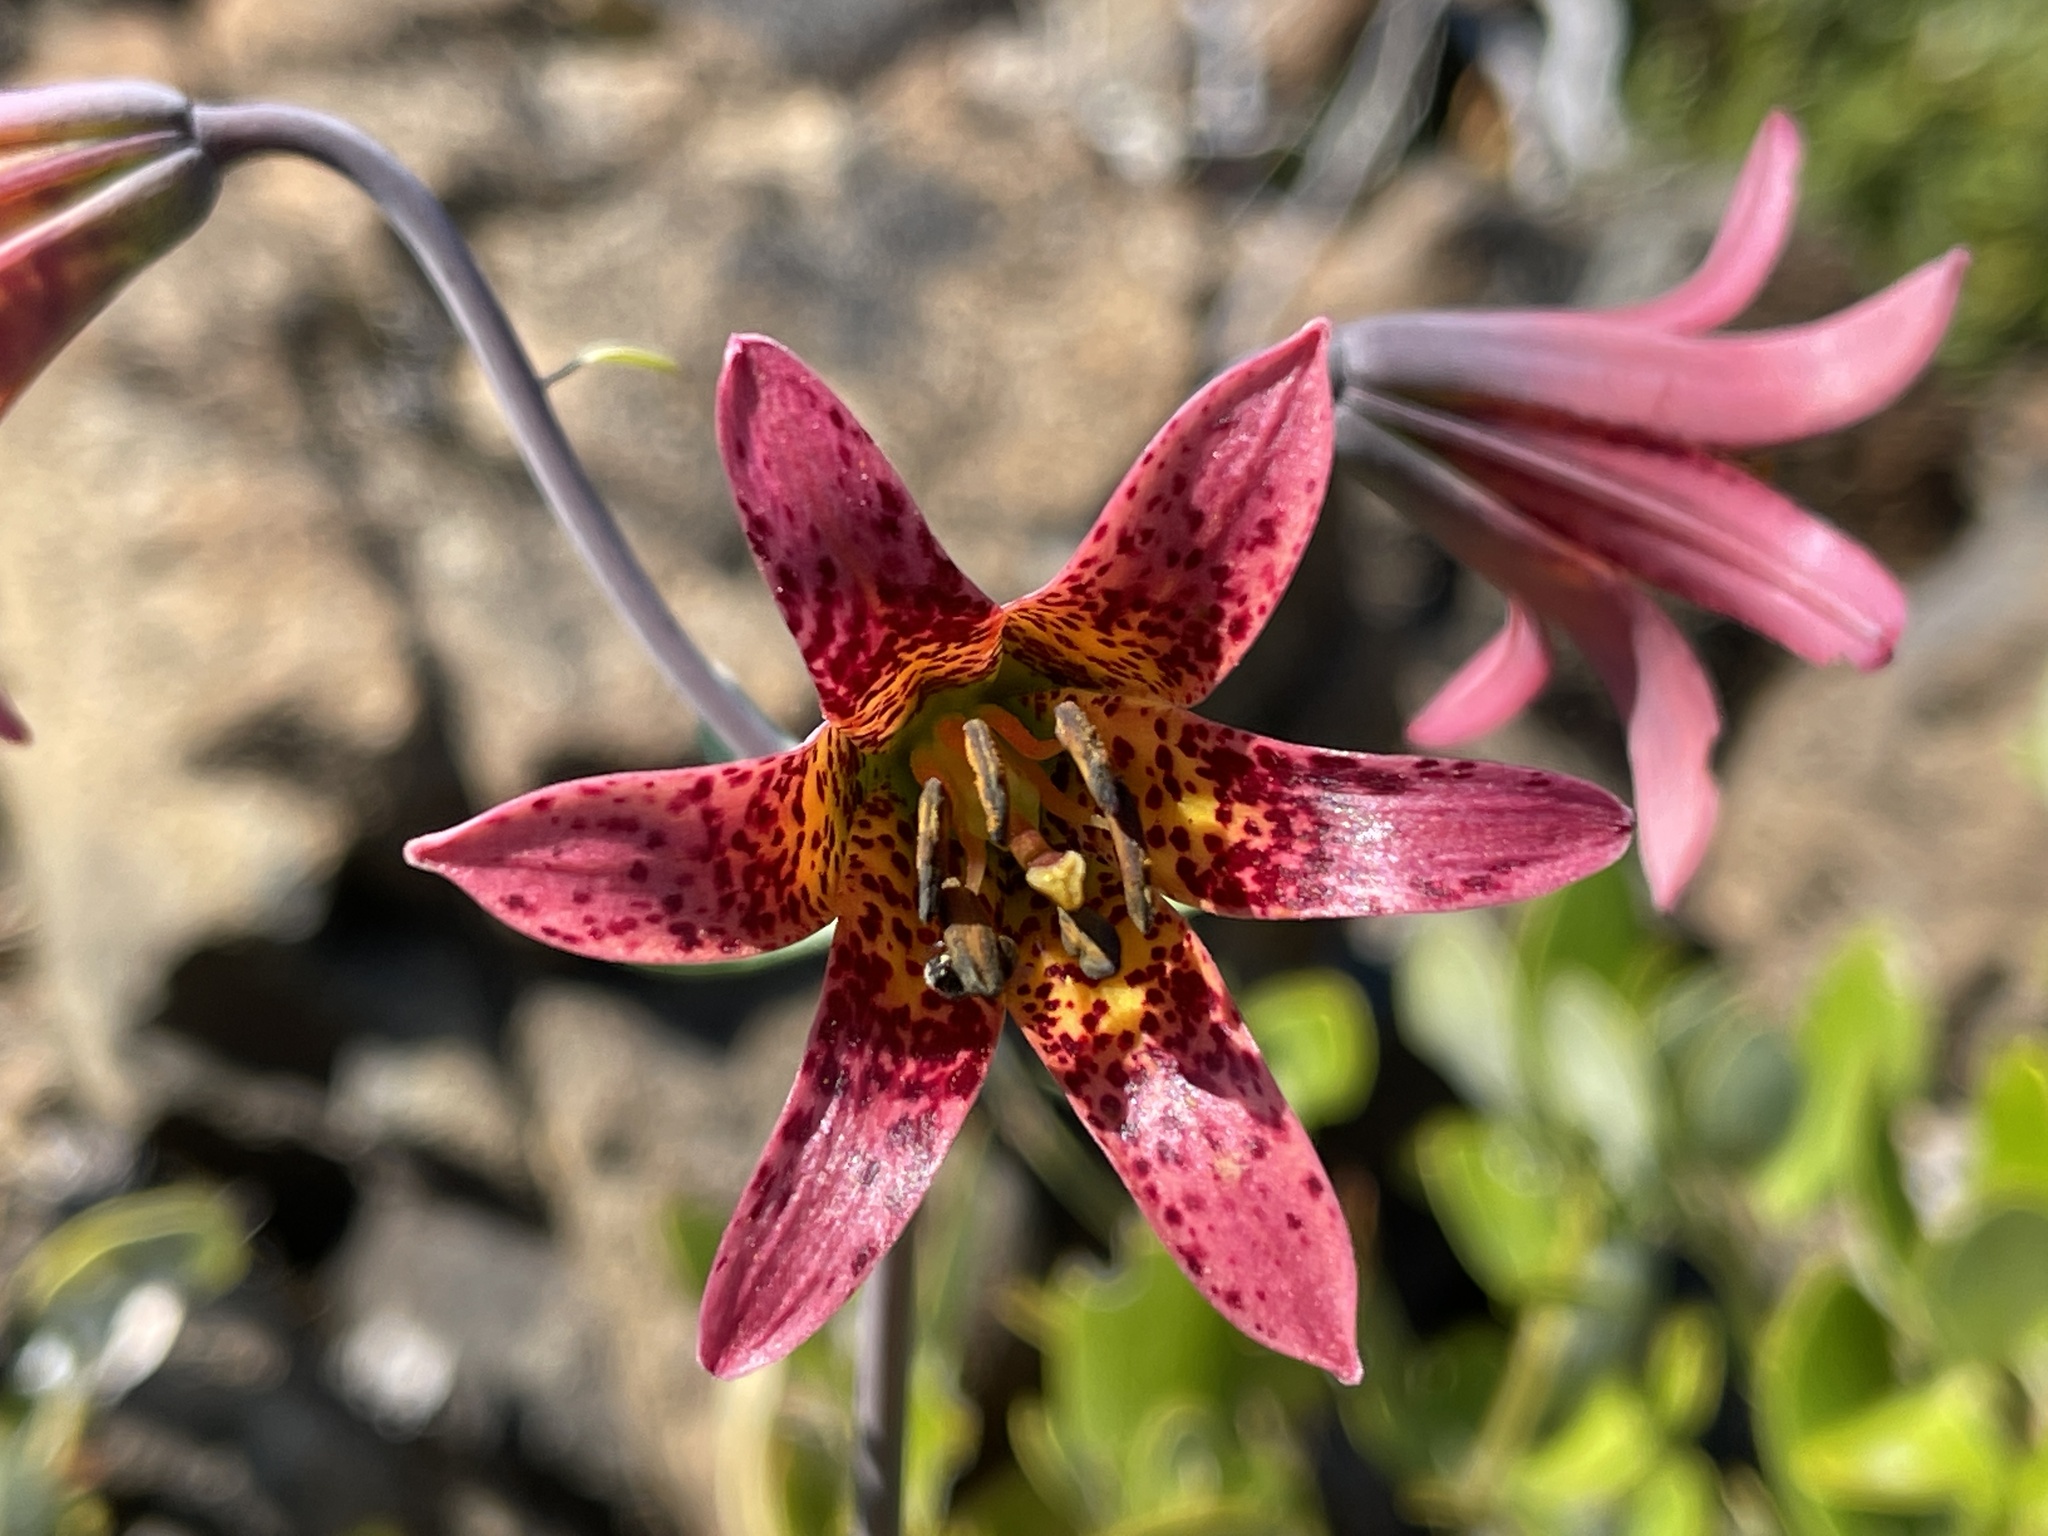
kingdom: Plantae
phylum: Tracheophyta
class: Liliopsida
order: Liliales
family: Liliaceae
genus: Lilium
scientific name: Lilium bolanderi
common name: Bolander's lily
